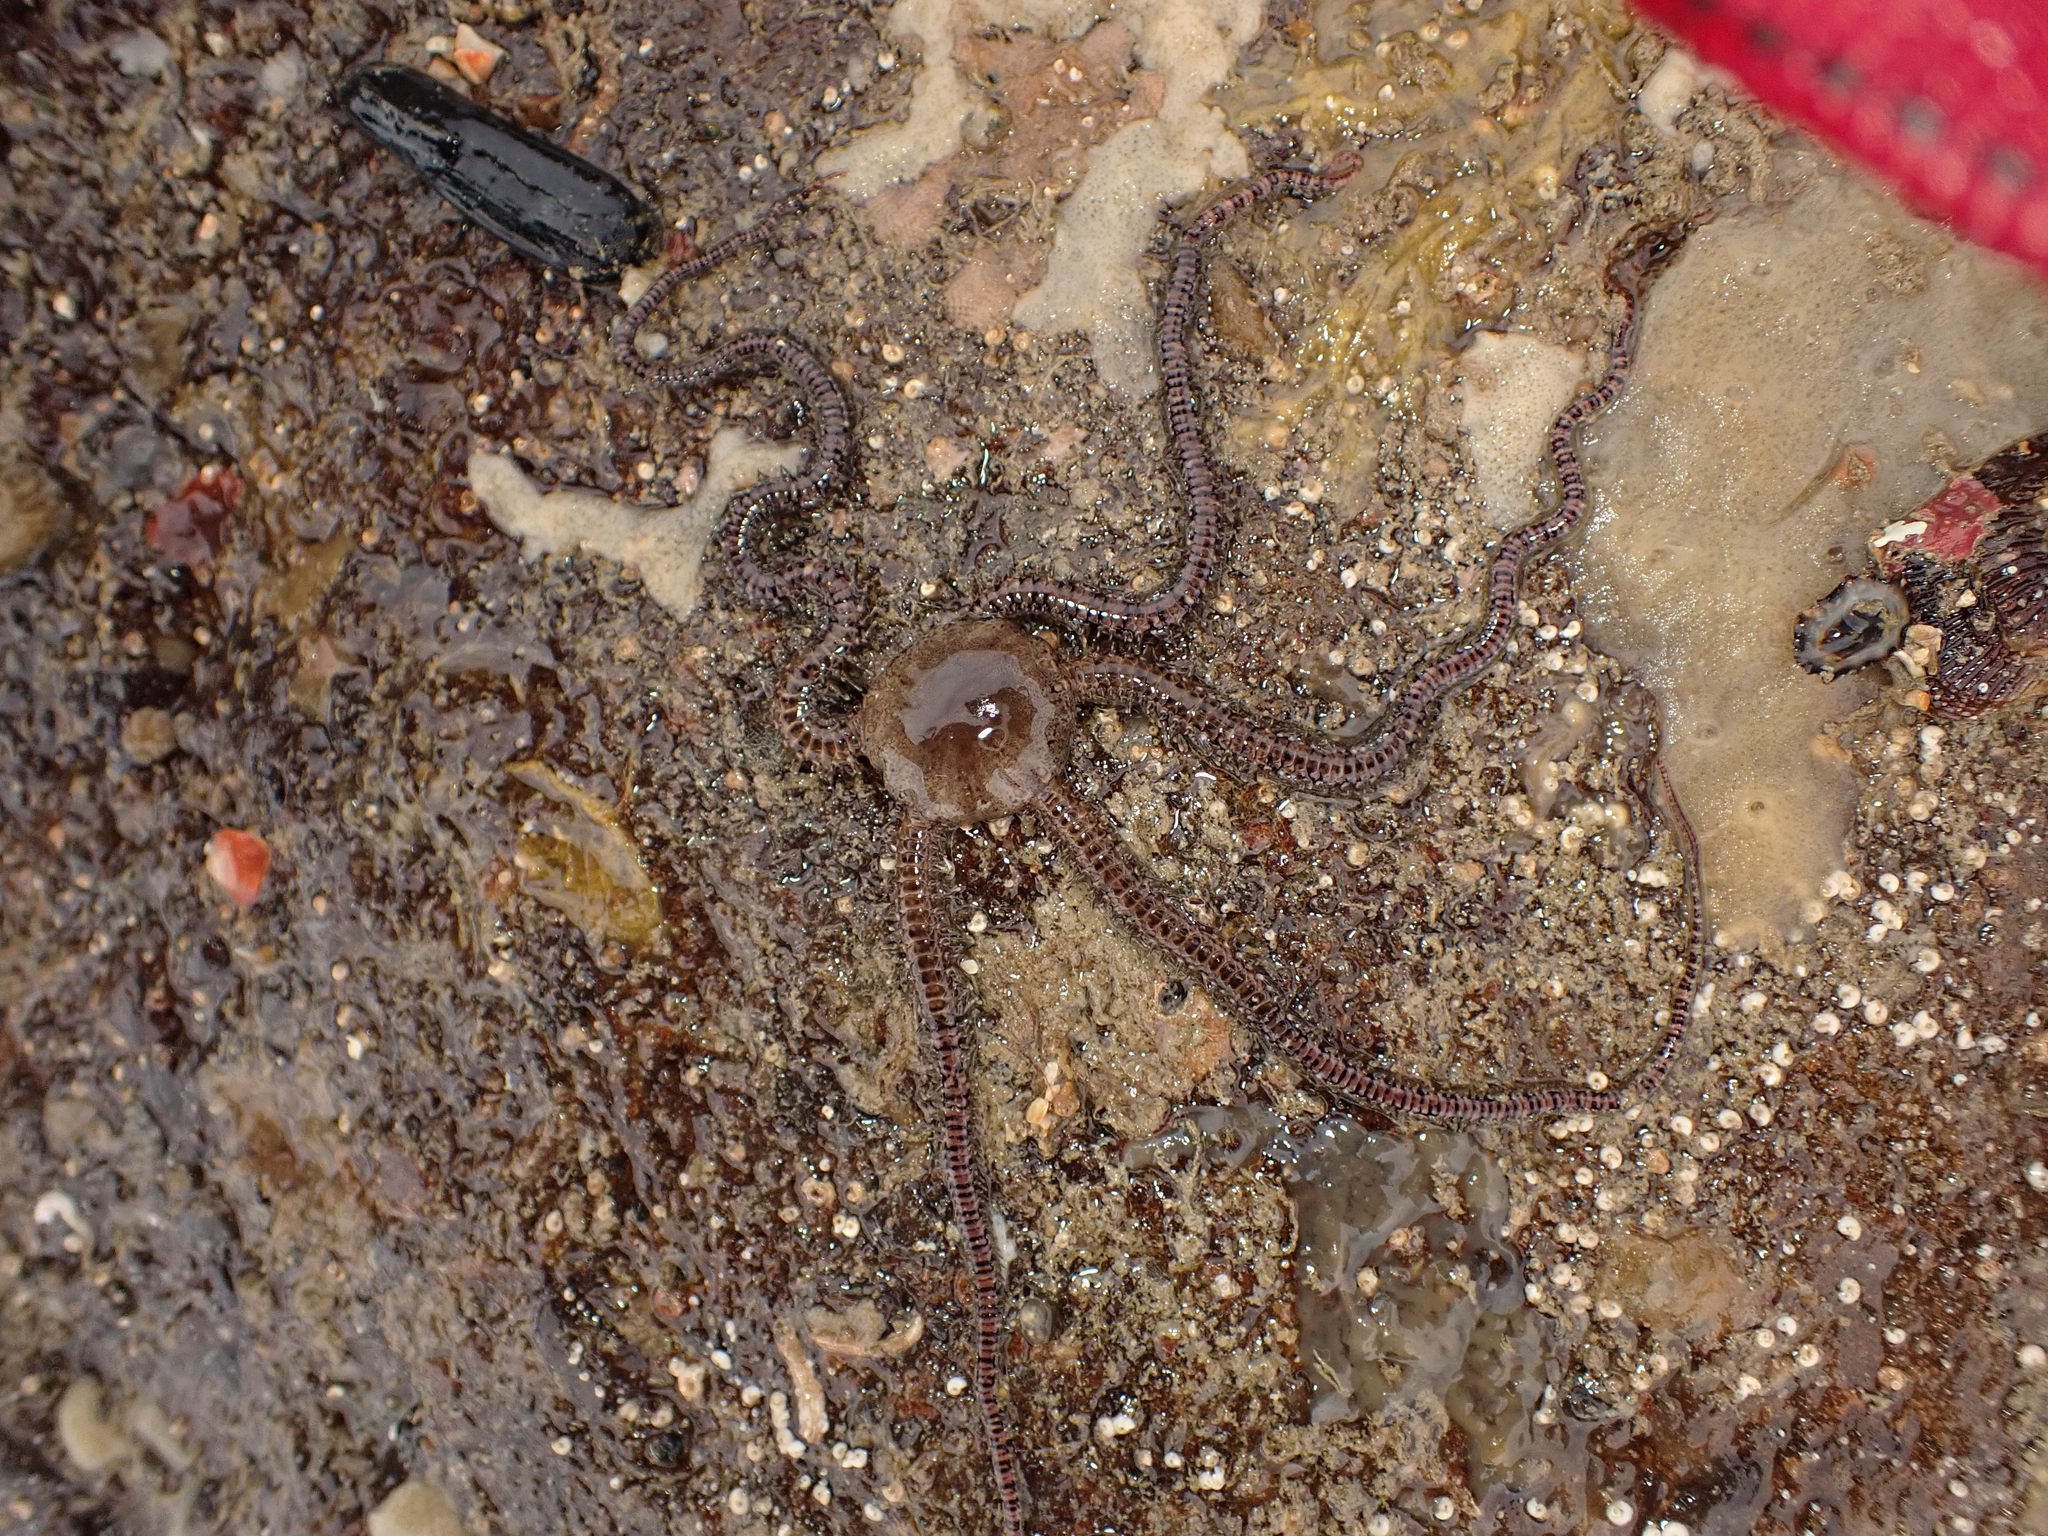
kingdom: Animalia
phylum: Echinodermata
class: Ophiuroidea
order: Amphilepidida
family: Ophionereididae
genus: Ophionereis
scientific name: Ophionereis fasciata
